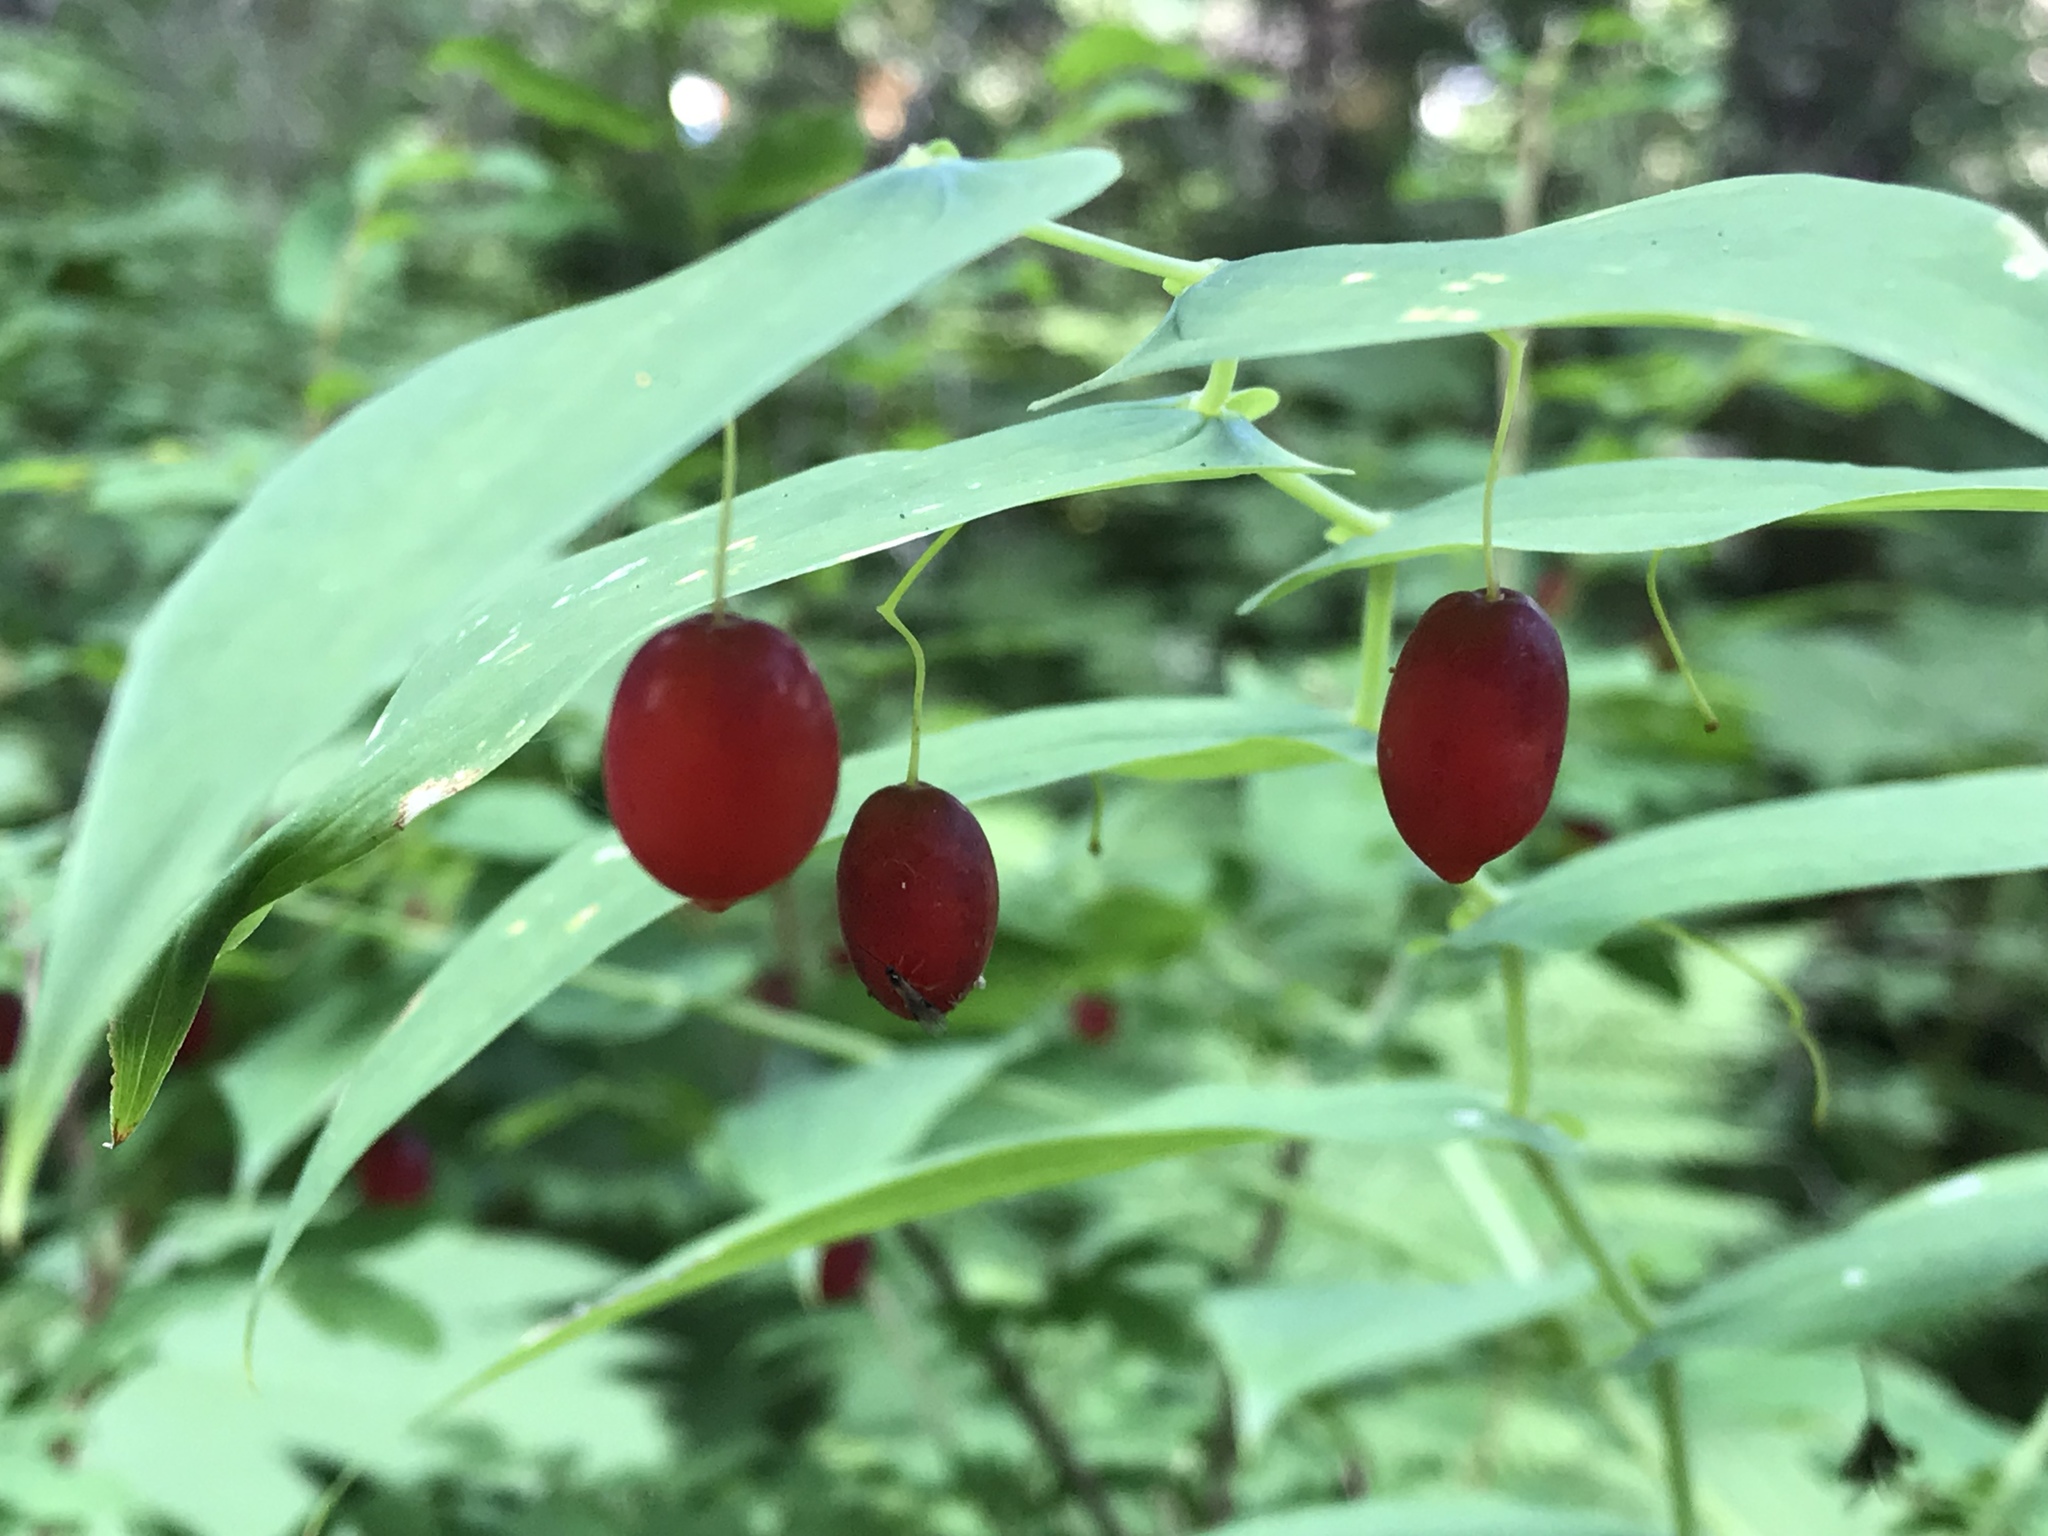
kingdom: Plantae
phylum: Tracheophyta
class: Liliopsida
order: Liliales
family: Liliaceae
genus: Streptopus
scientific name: Streptopus amplexifolius
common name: Clasp twisted stalk
